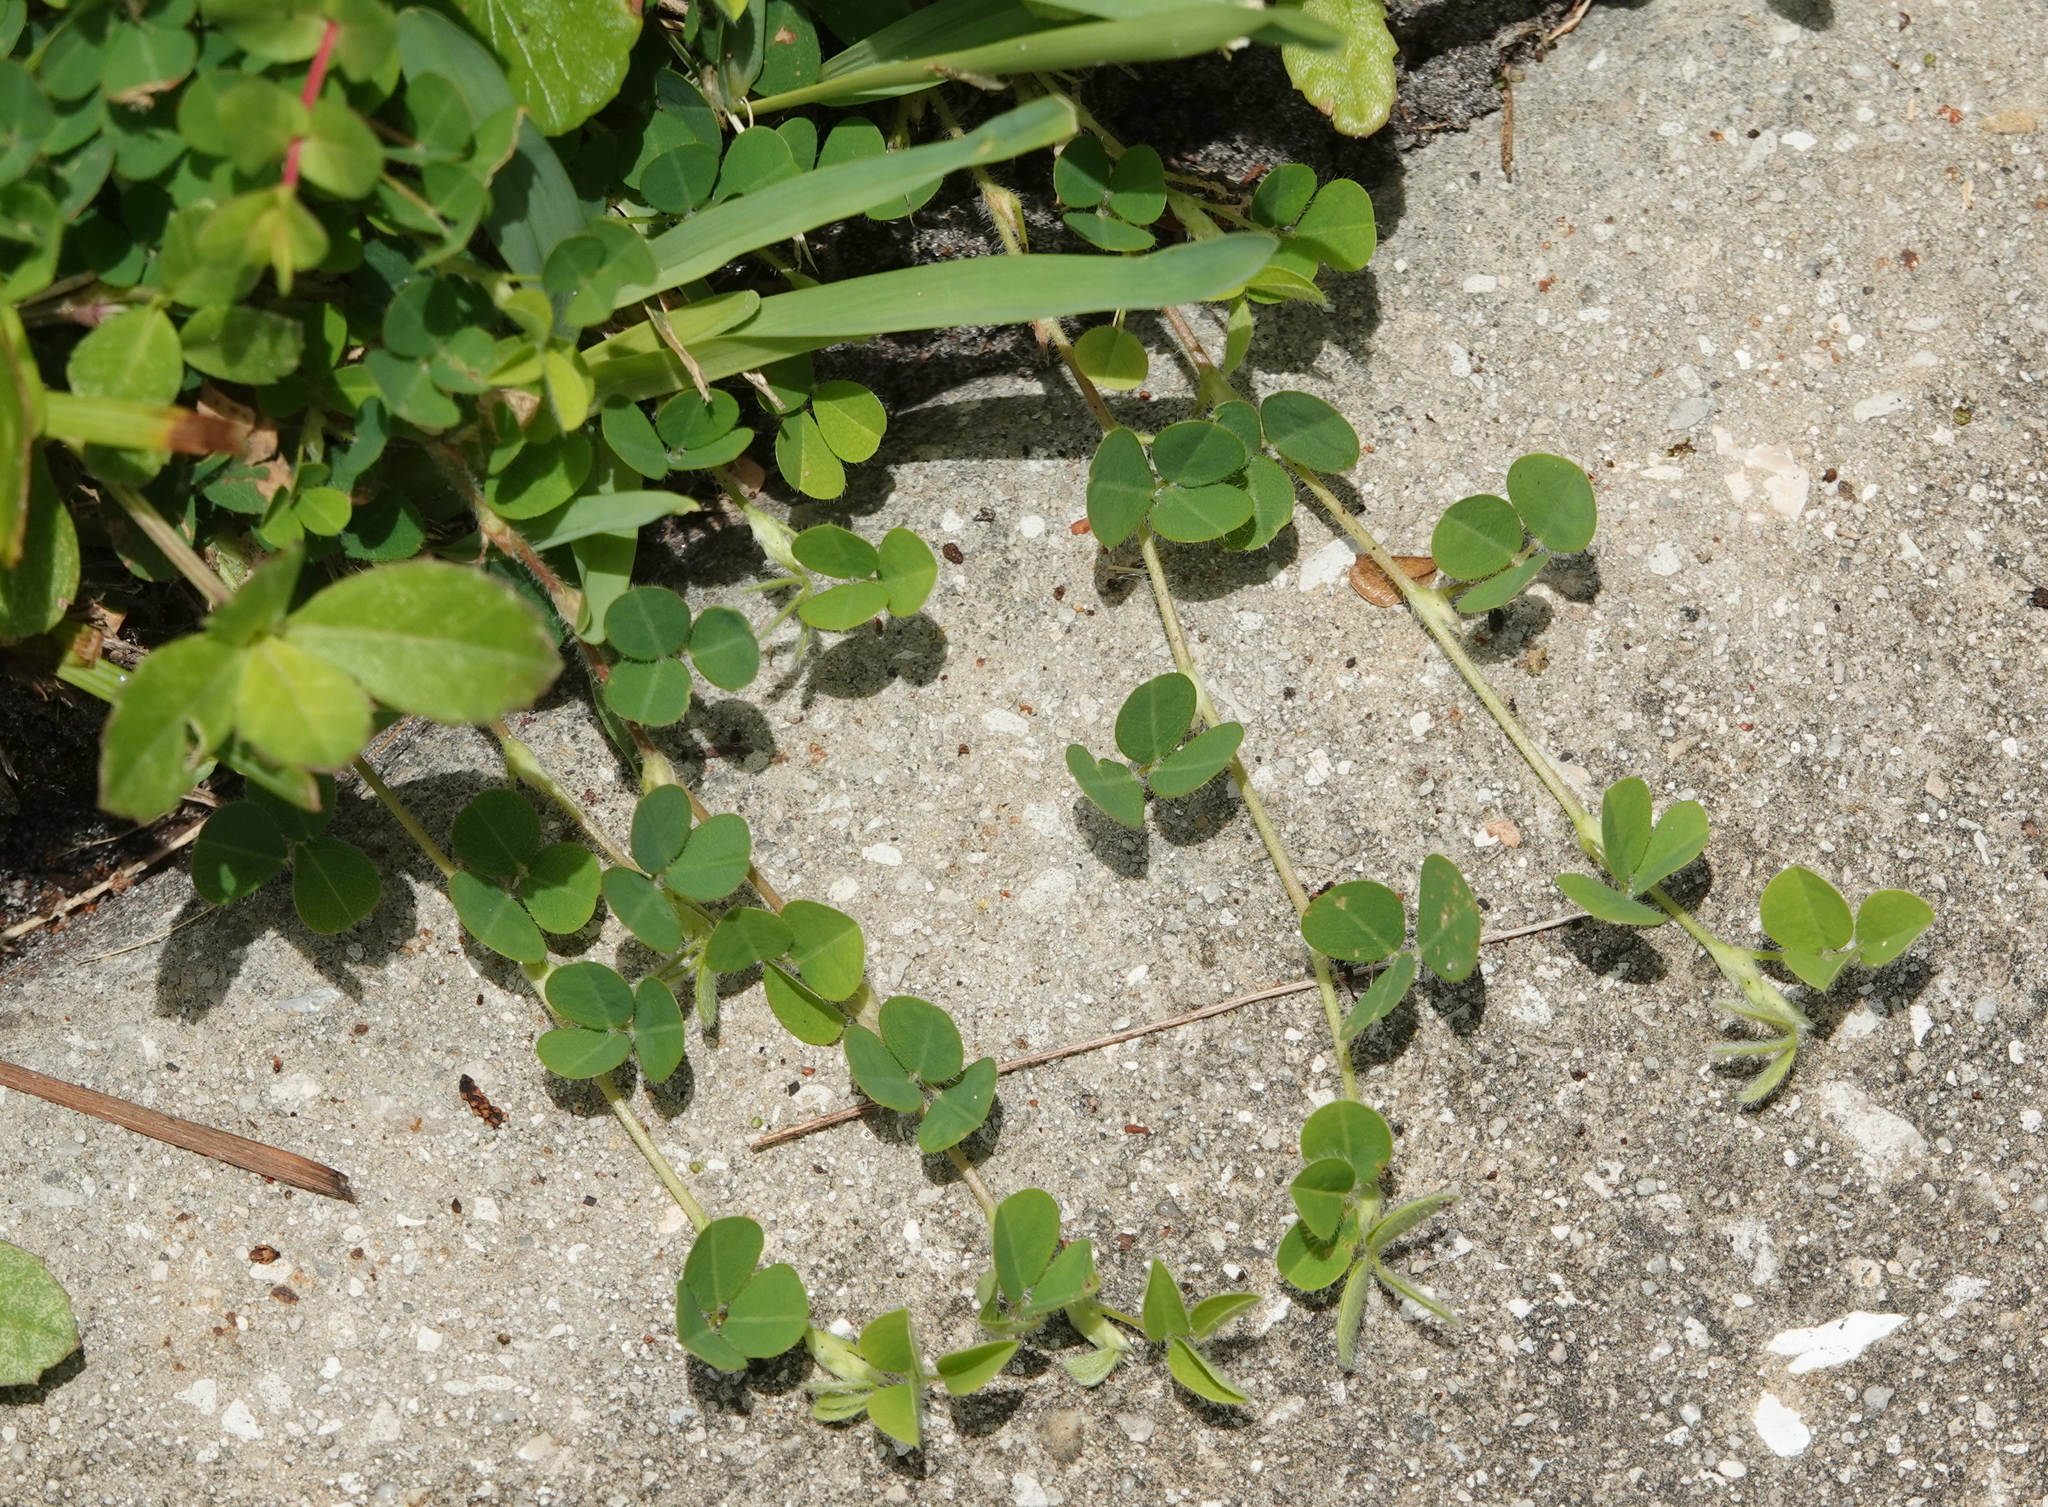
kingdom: Plantae
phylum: Tracheophyta
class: Magnoliopsida
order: Fabales
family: Fabaceae
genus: Grona
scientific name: Grona triflora
